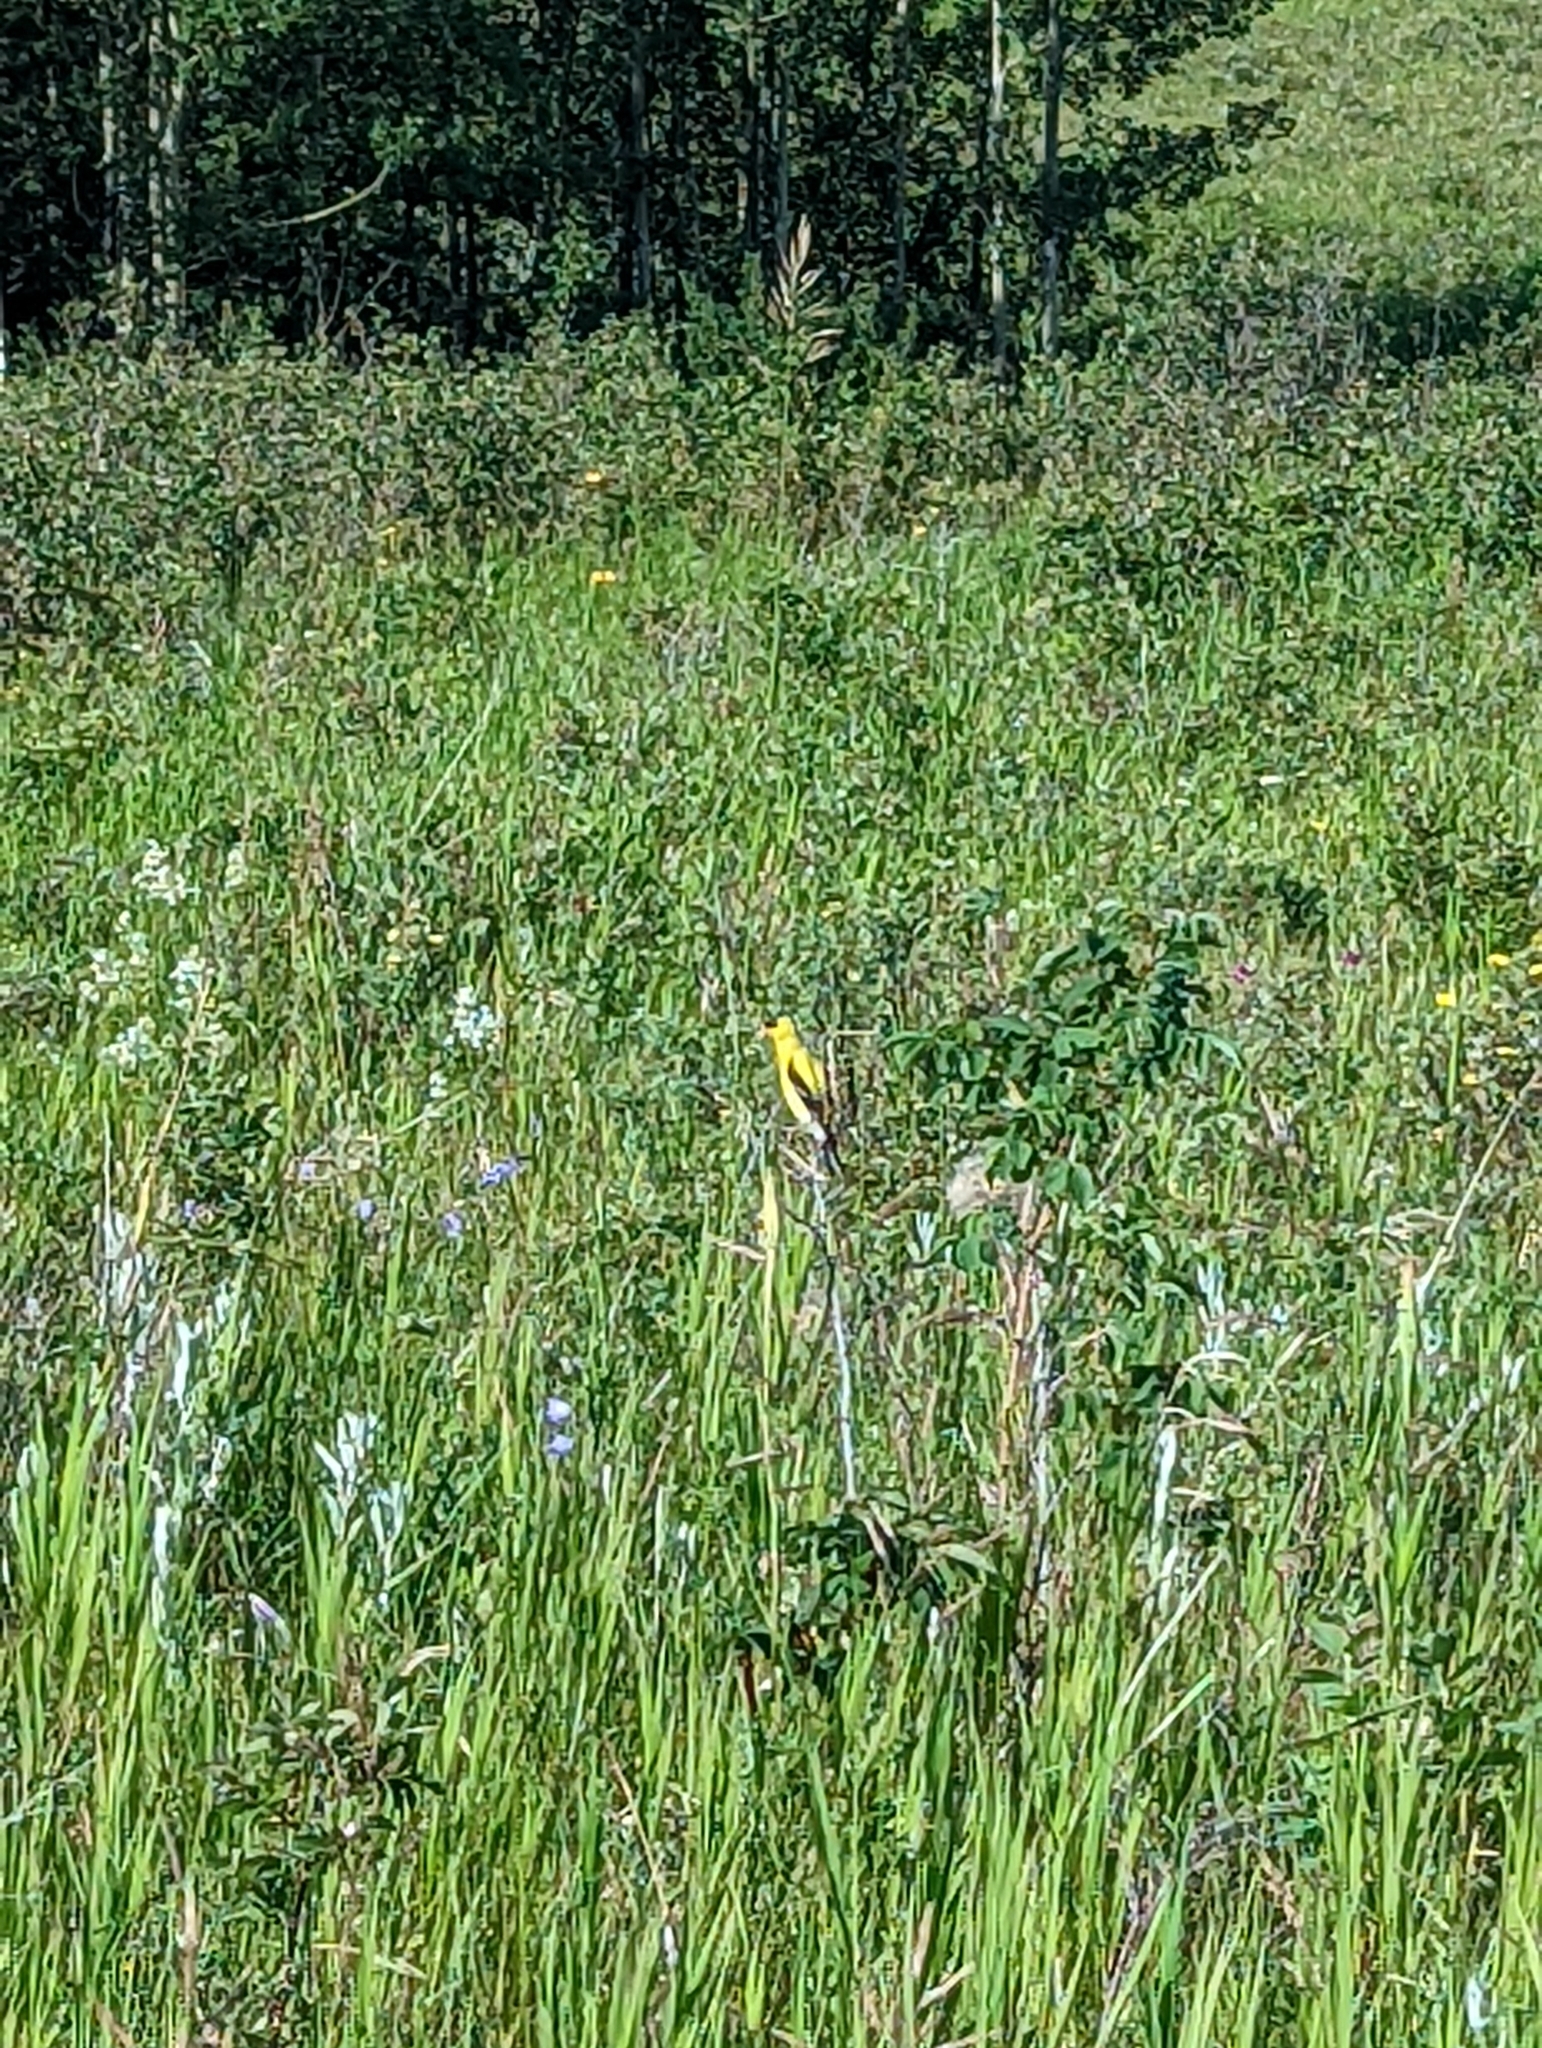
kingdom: Animalia
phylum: Chordata
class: Aves
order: Passeriformes
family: Fringillidae
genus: Spinus
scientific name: Spinus tristis
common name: American goldfinch
